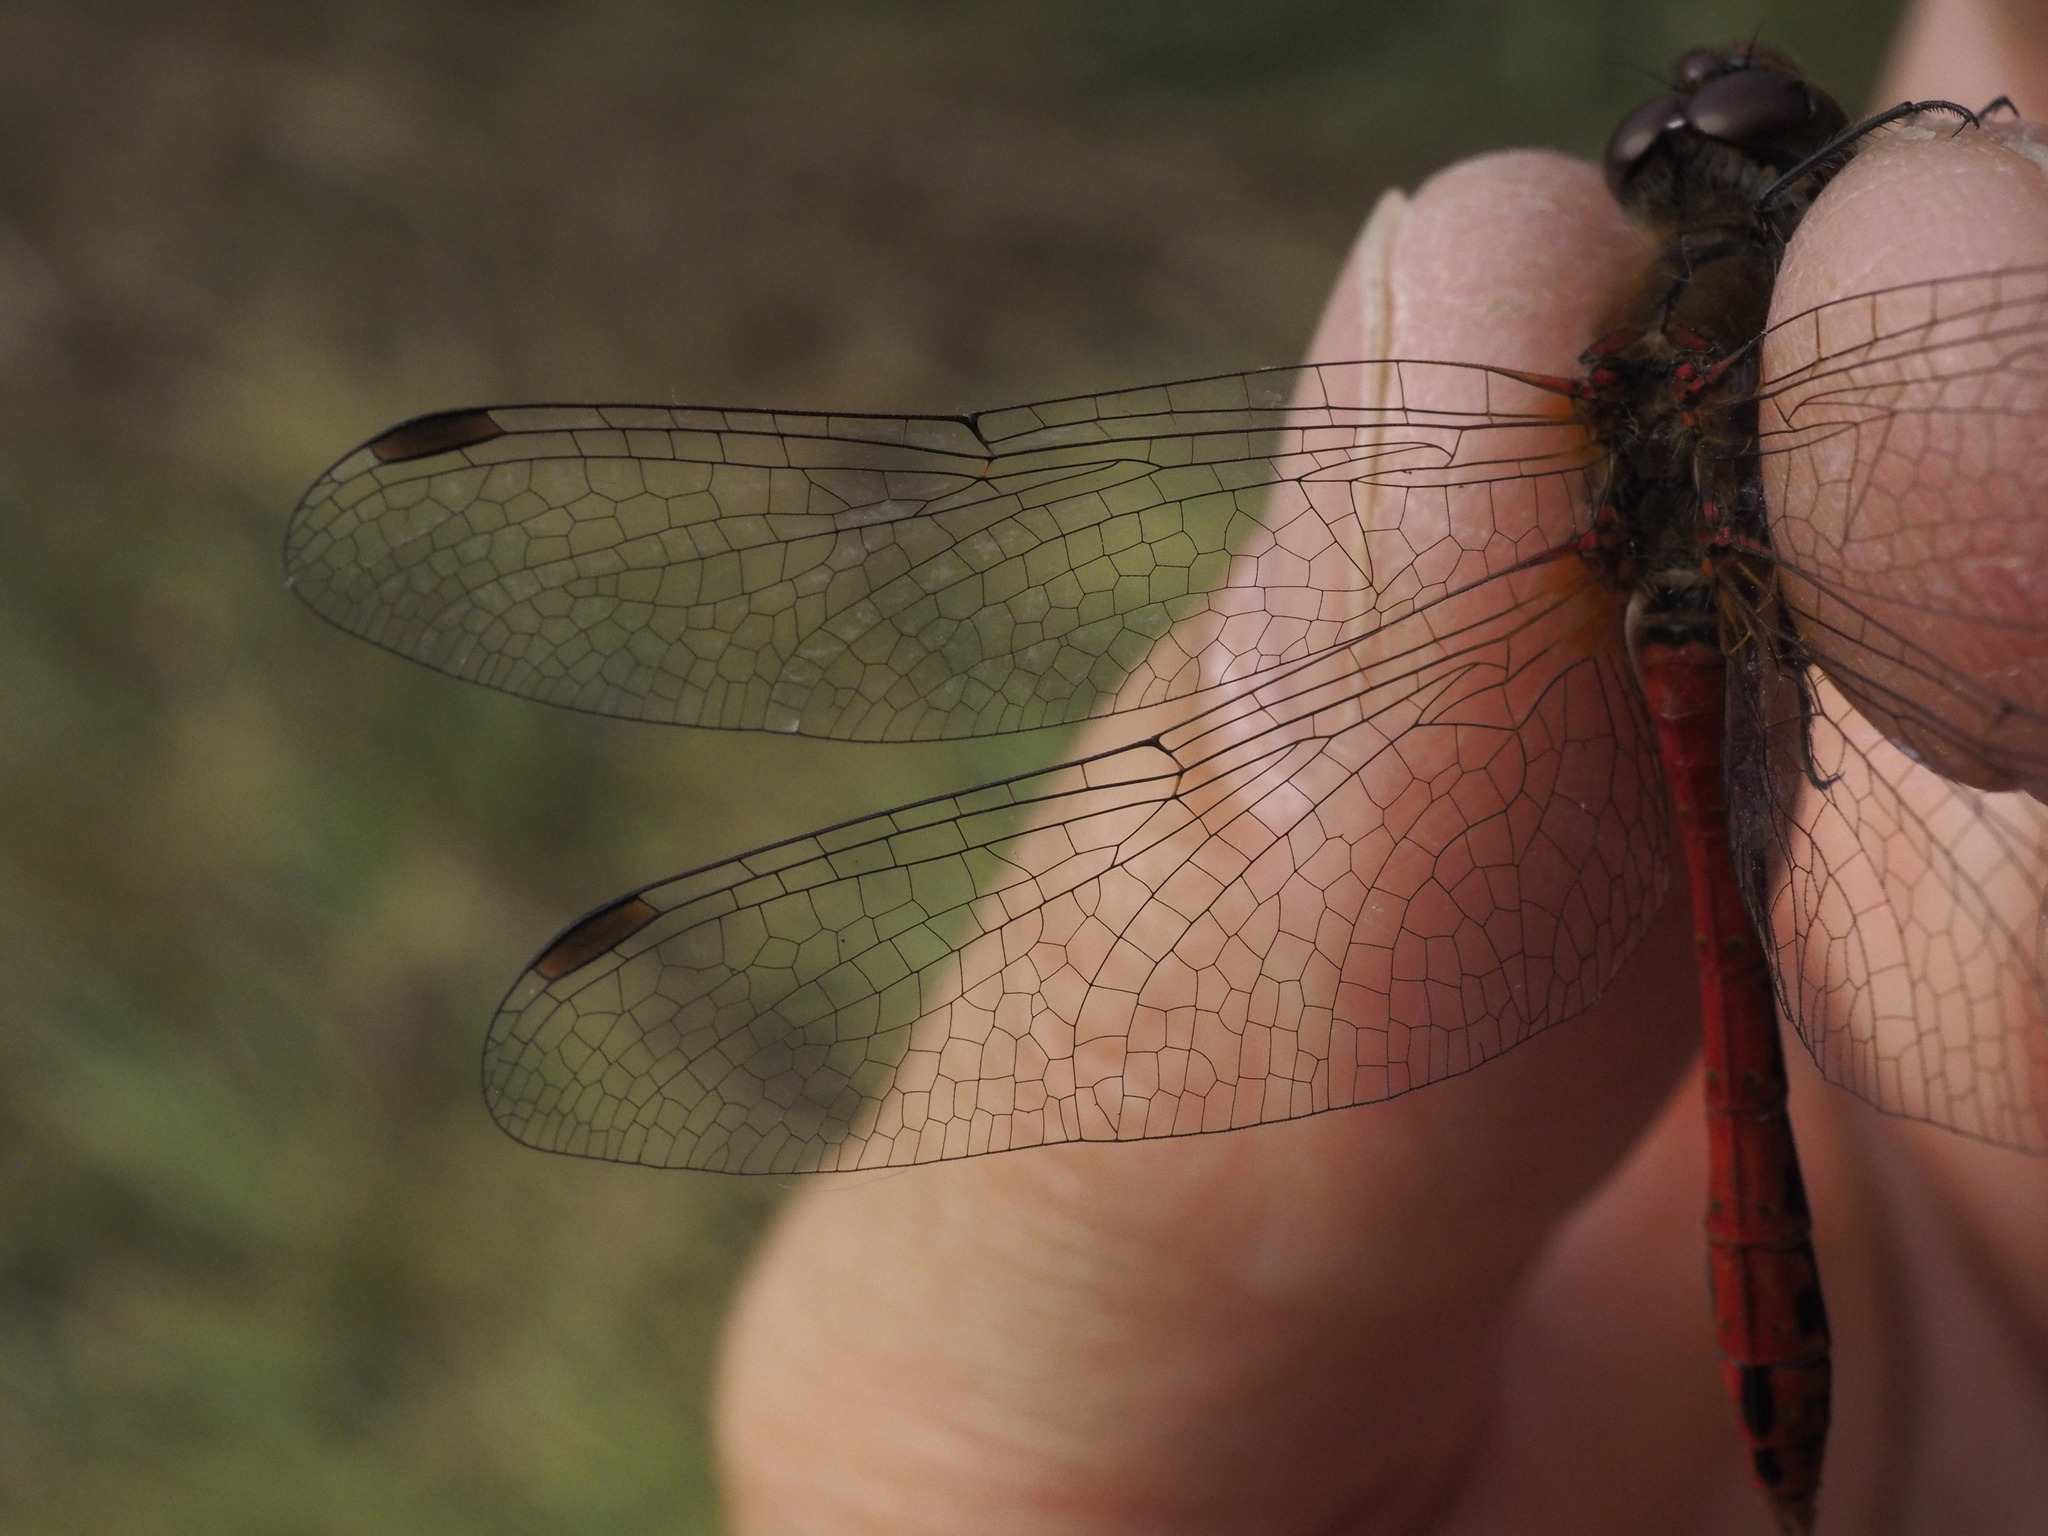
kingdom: Animalia
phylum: Arthropoda
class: Insecta
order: Odonata
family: Libellulidae
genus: Sympetrum
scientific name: Sympetrum sanguineum
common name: Ruddy darter
